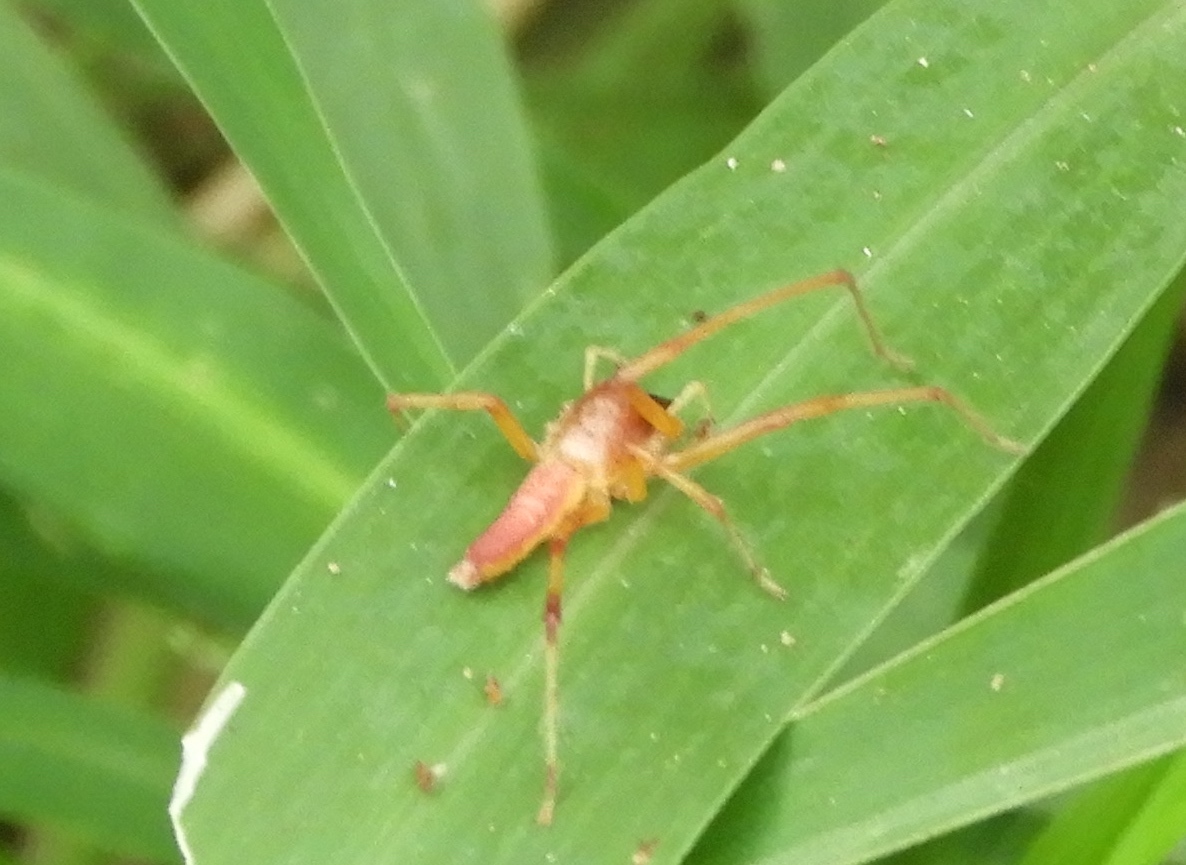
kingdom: Animalia
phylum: Arthropoda
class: Arachnida
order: Araneae
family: Oxyopidae
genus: Peucetia
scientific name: Peucetia
